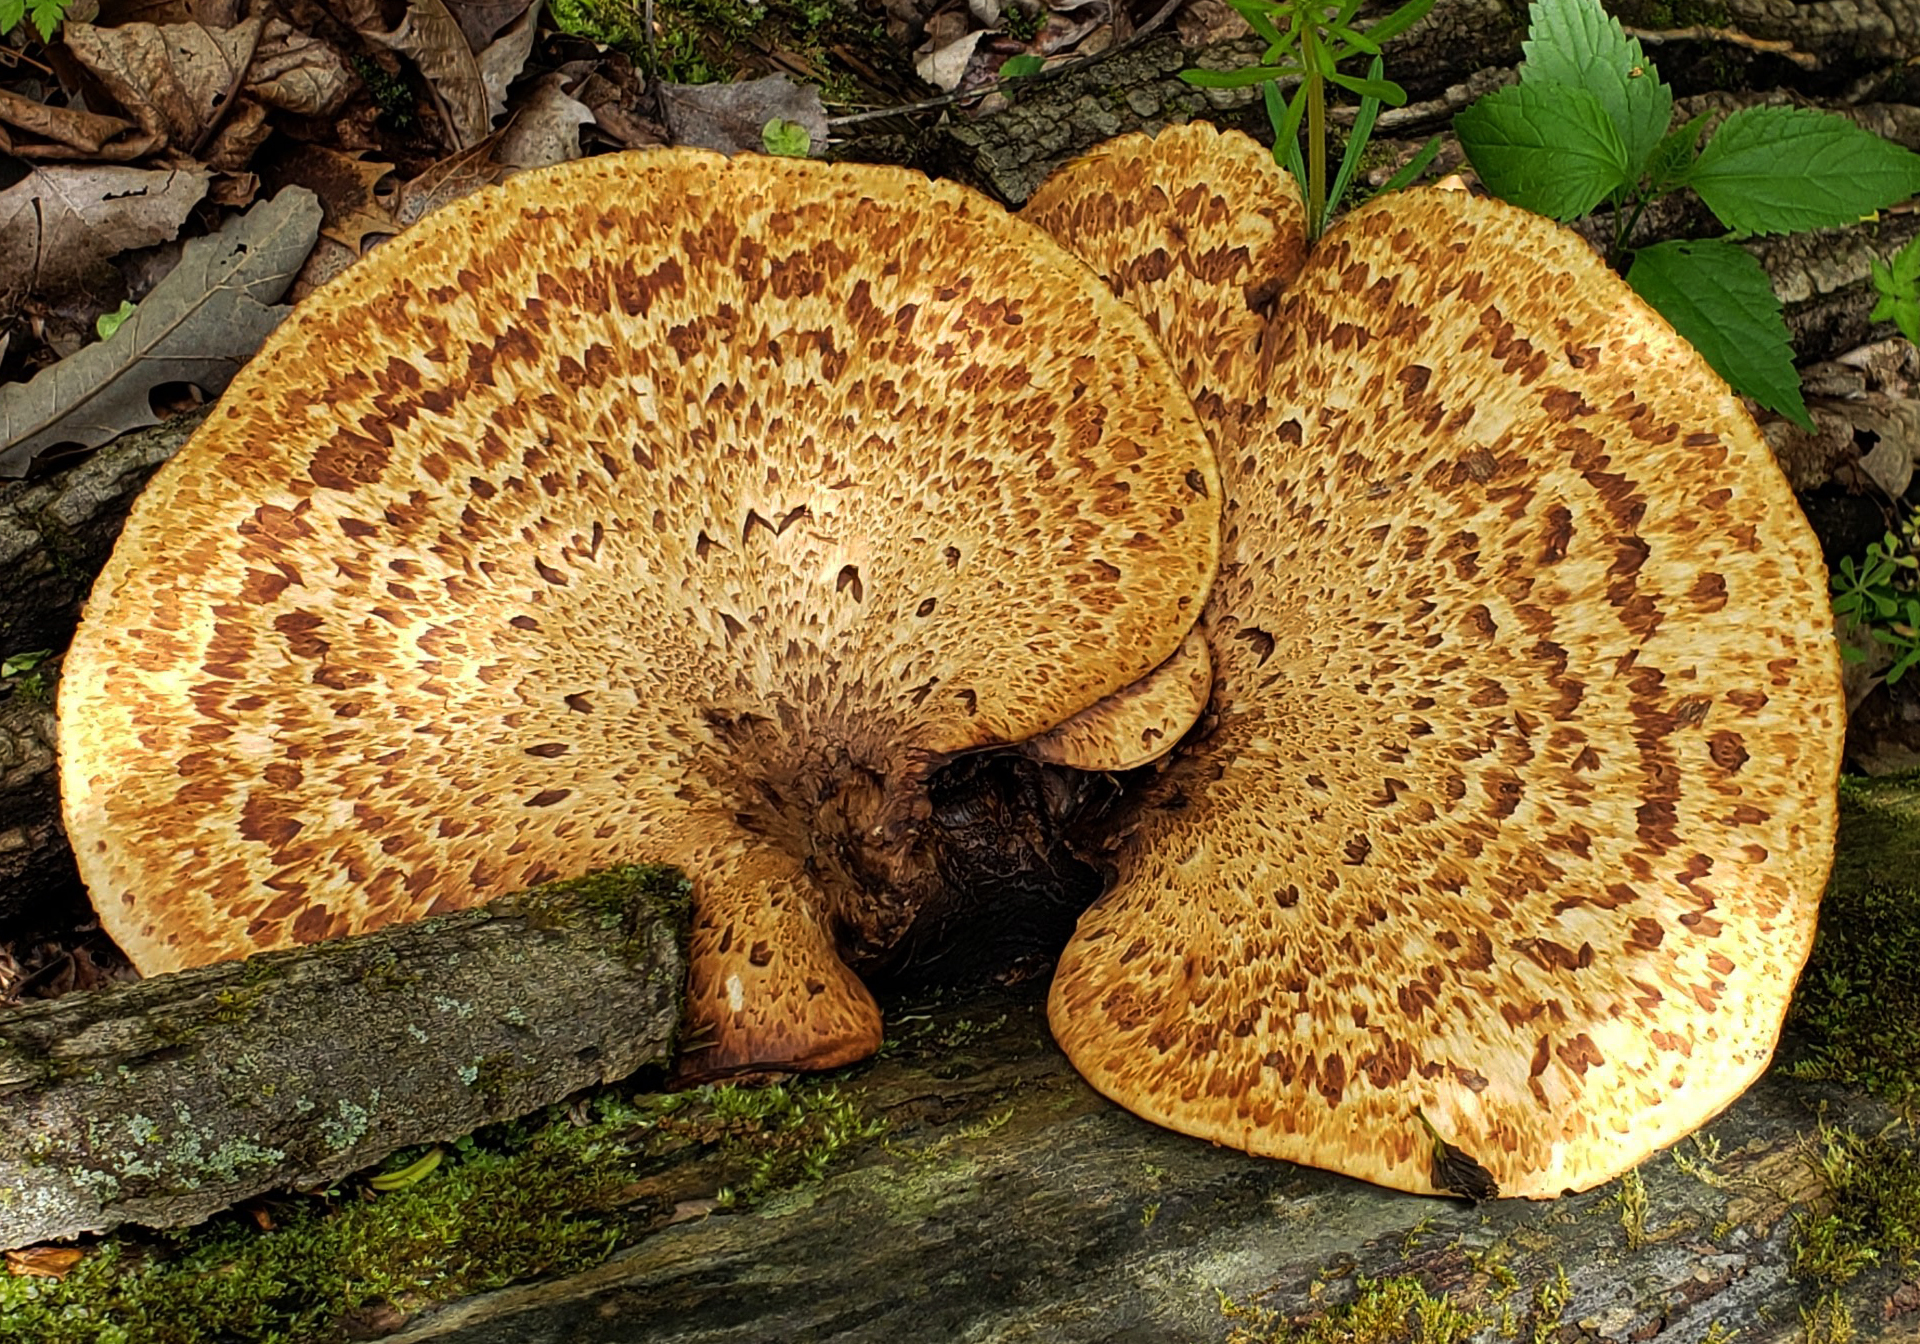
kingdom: Fungi
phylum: Basidiomycota
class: Agaricomycetes
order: Polyporales
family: Polyporaceae
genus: Cerioporus
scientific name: Cerioporus squamosus
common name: Dryad's saddle
